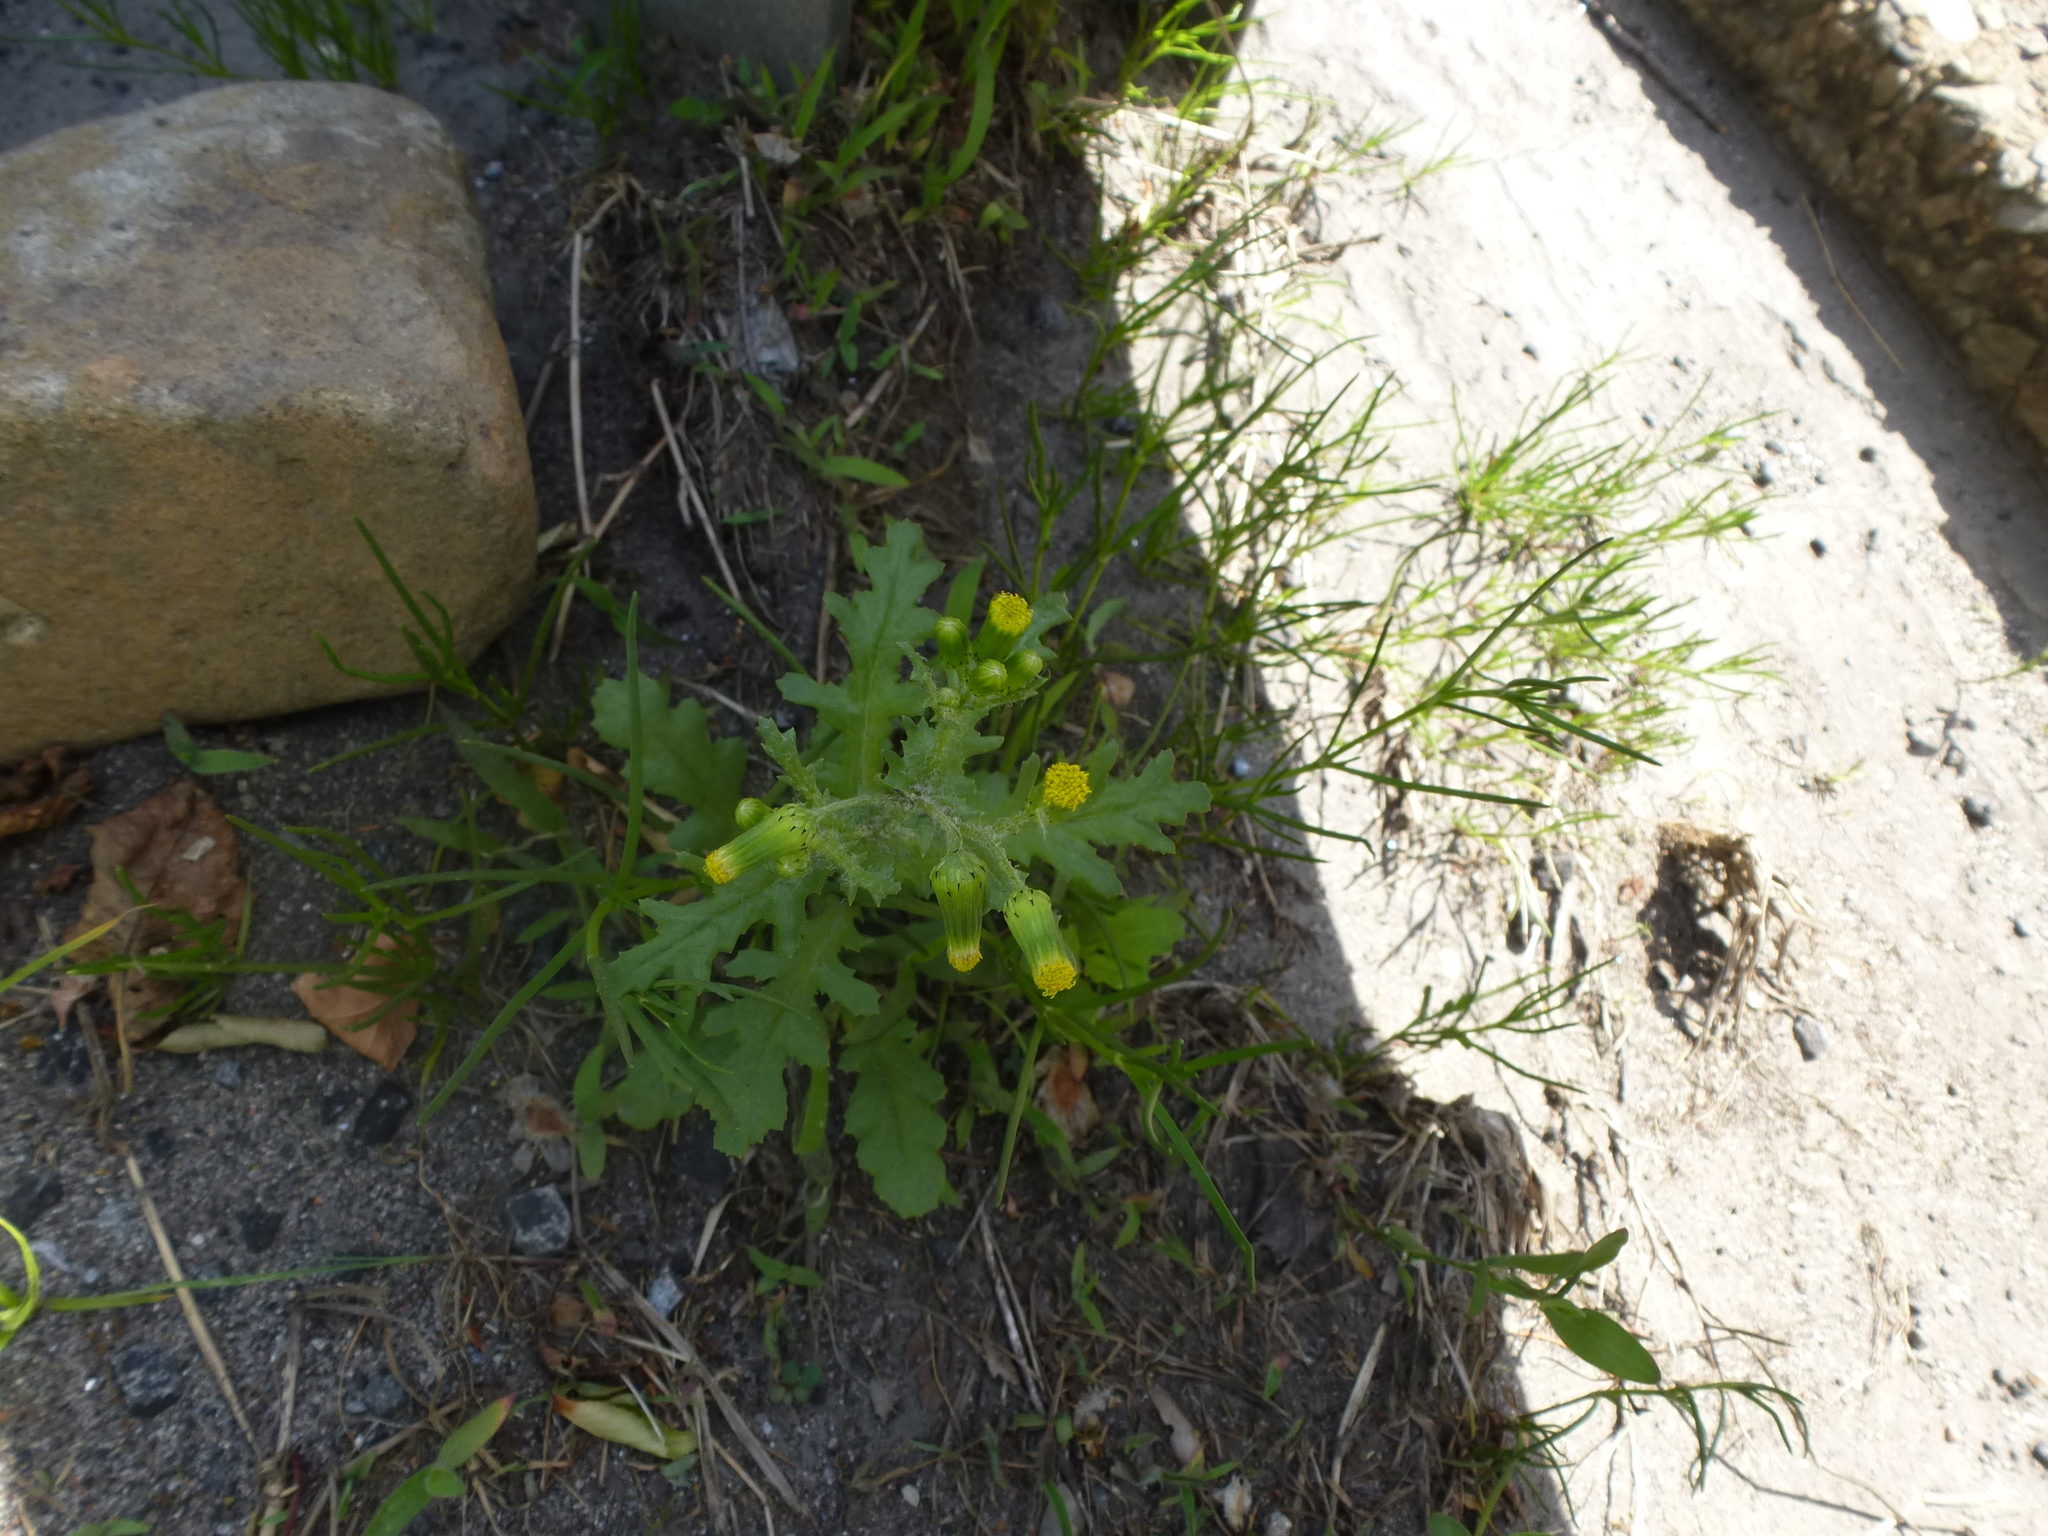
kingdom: Plantae
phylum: Tracheophyta
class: Magnoliopsida
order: Asterales
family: Asteraceae
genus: Senecio
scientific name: Senecio vulgaris
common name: Old-man-in-the-spring
